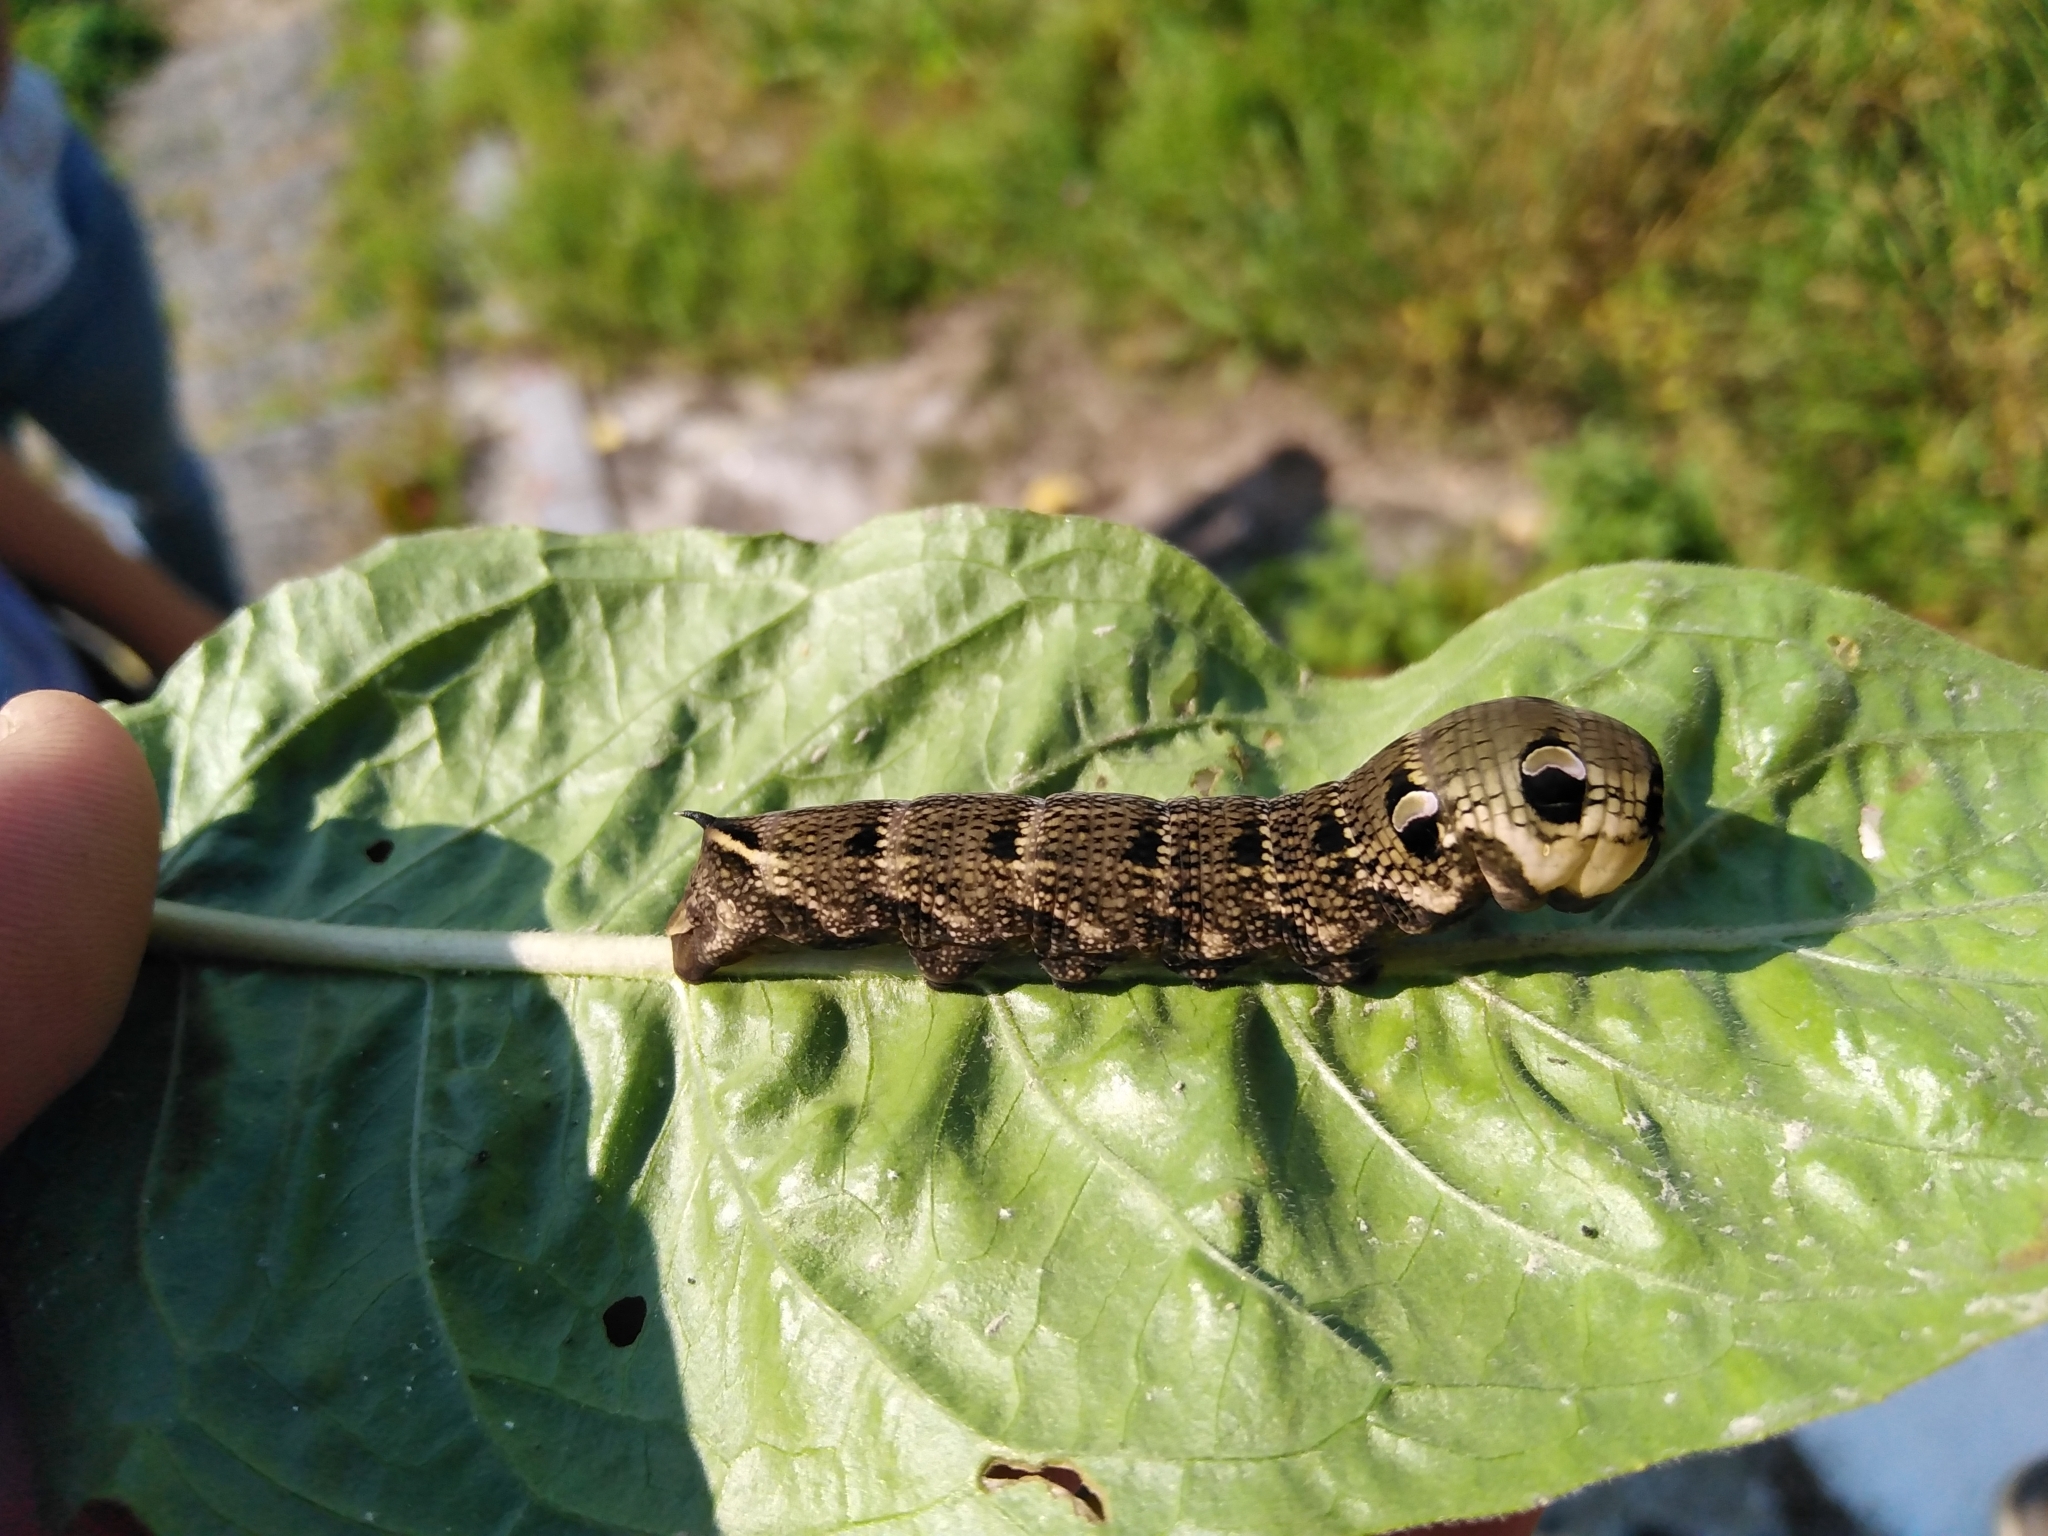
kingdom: Animalia
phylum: Arthropoda
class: Insecta
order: Lepidoptera
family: Sphingidae
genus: Deilephila
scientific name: Deilephila elpenor
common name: Elephant hawk-moth
